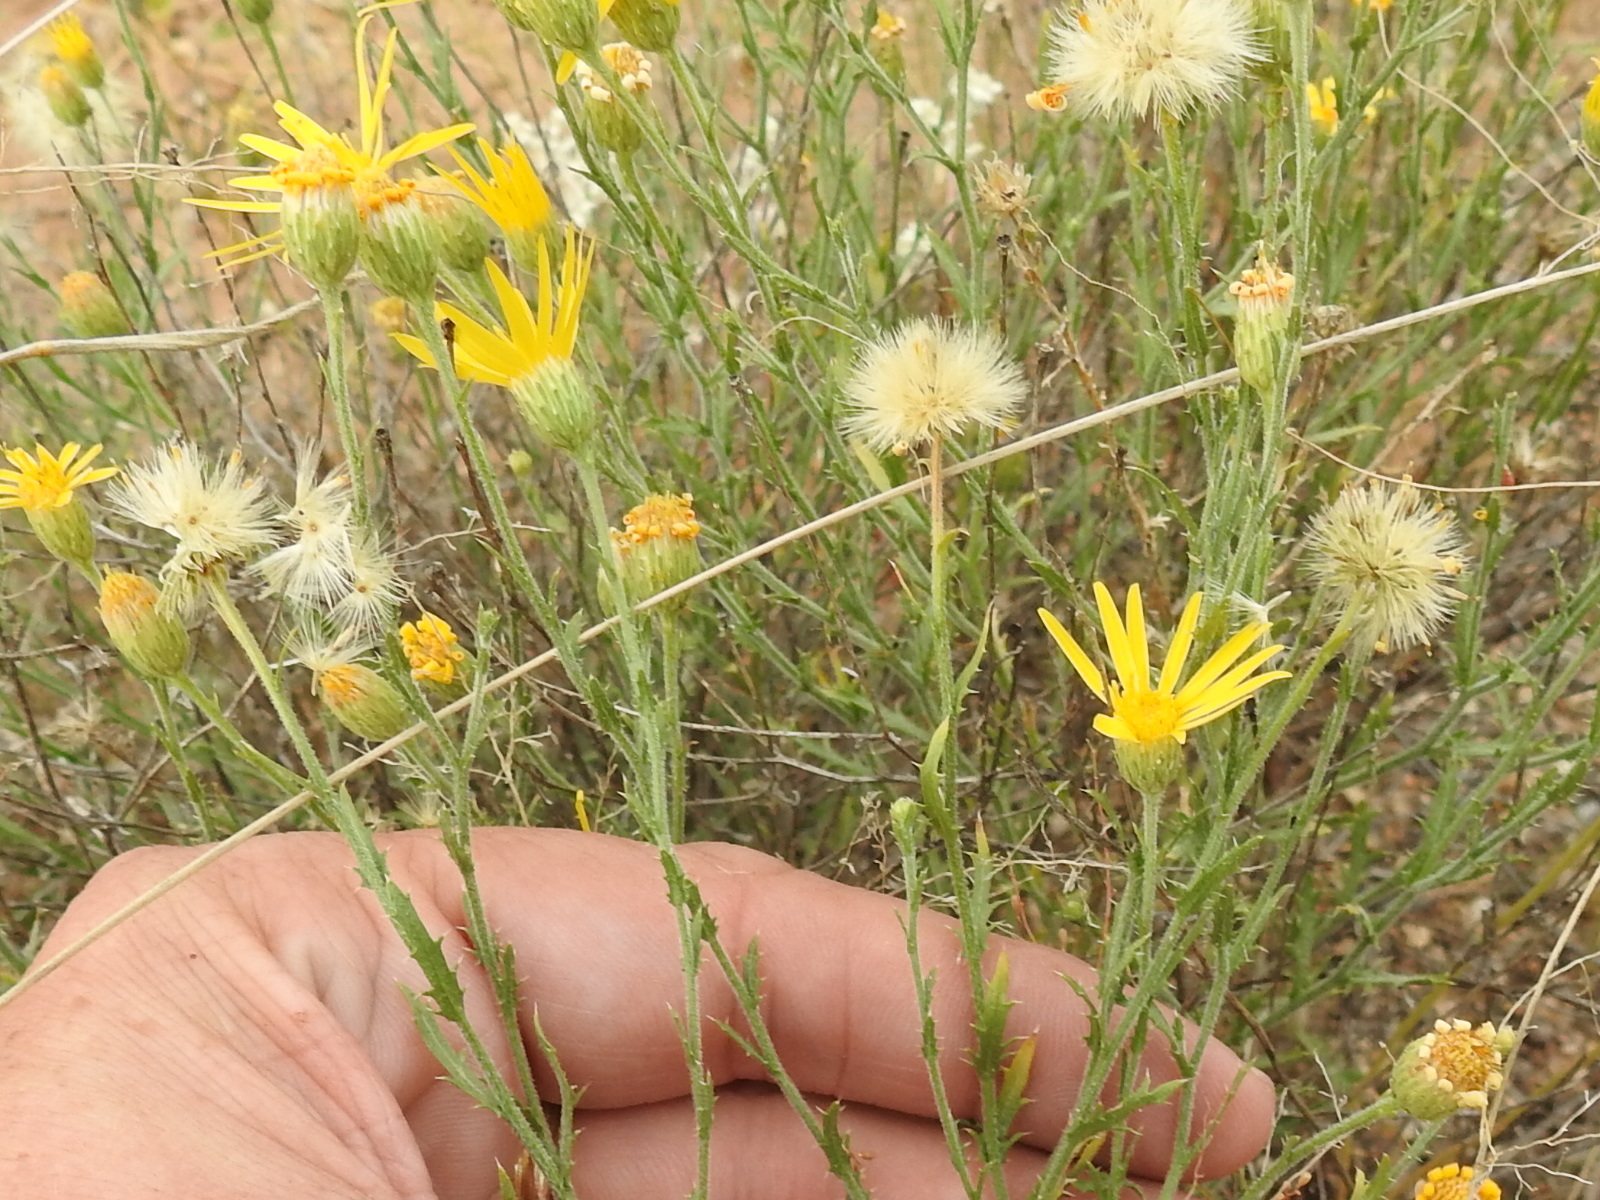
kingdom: Plantae
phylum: Tracheophyta
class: Magnoliopsida
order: Asterales
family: Asteraceae
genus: Xanthisma
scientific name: Xanthisma spinulosum
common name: Spiny goldenweed
